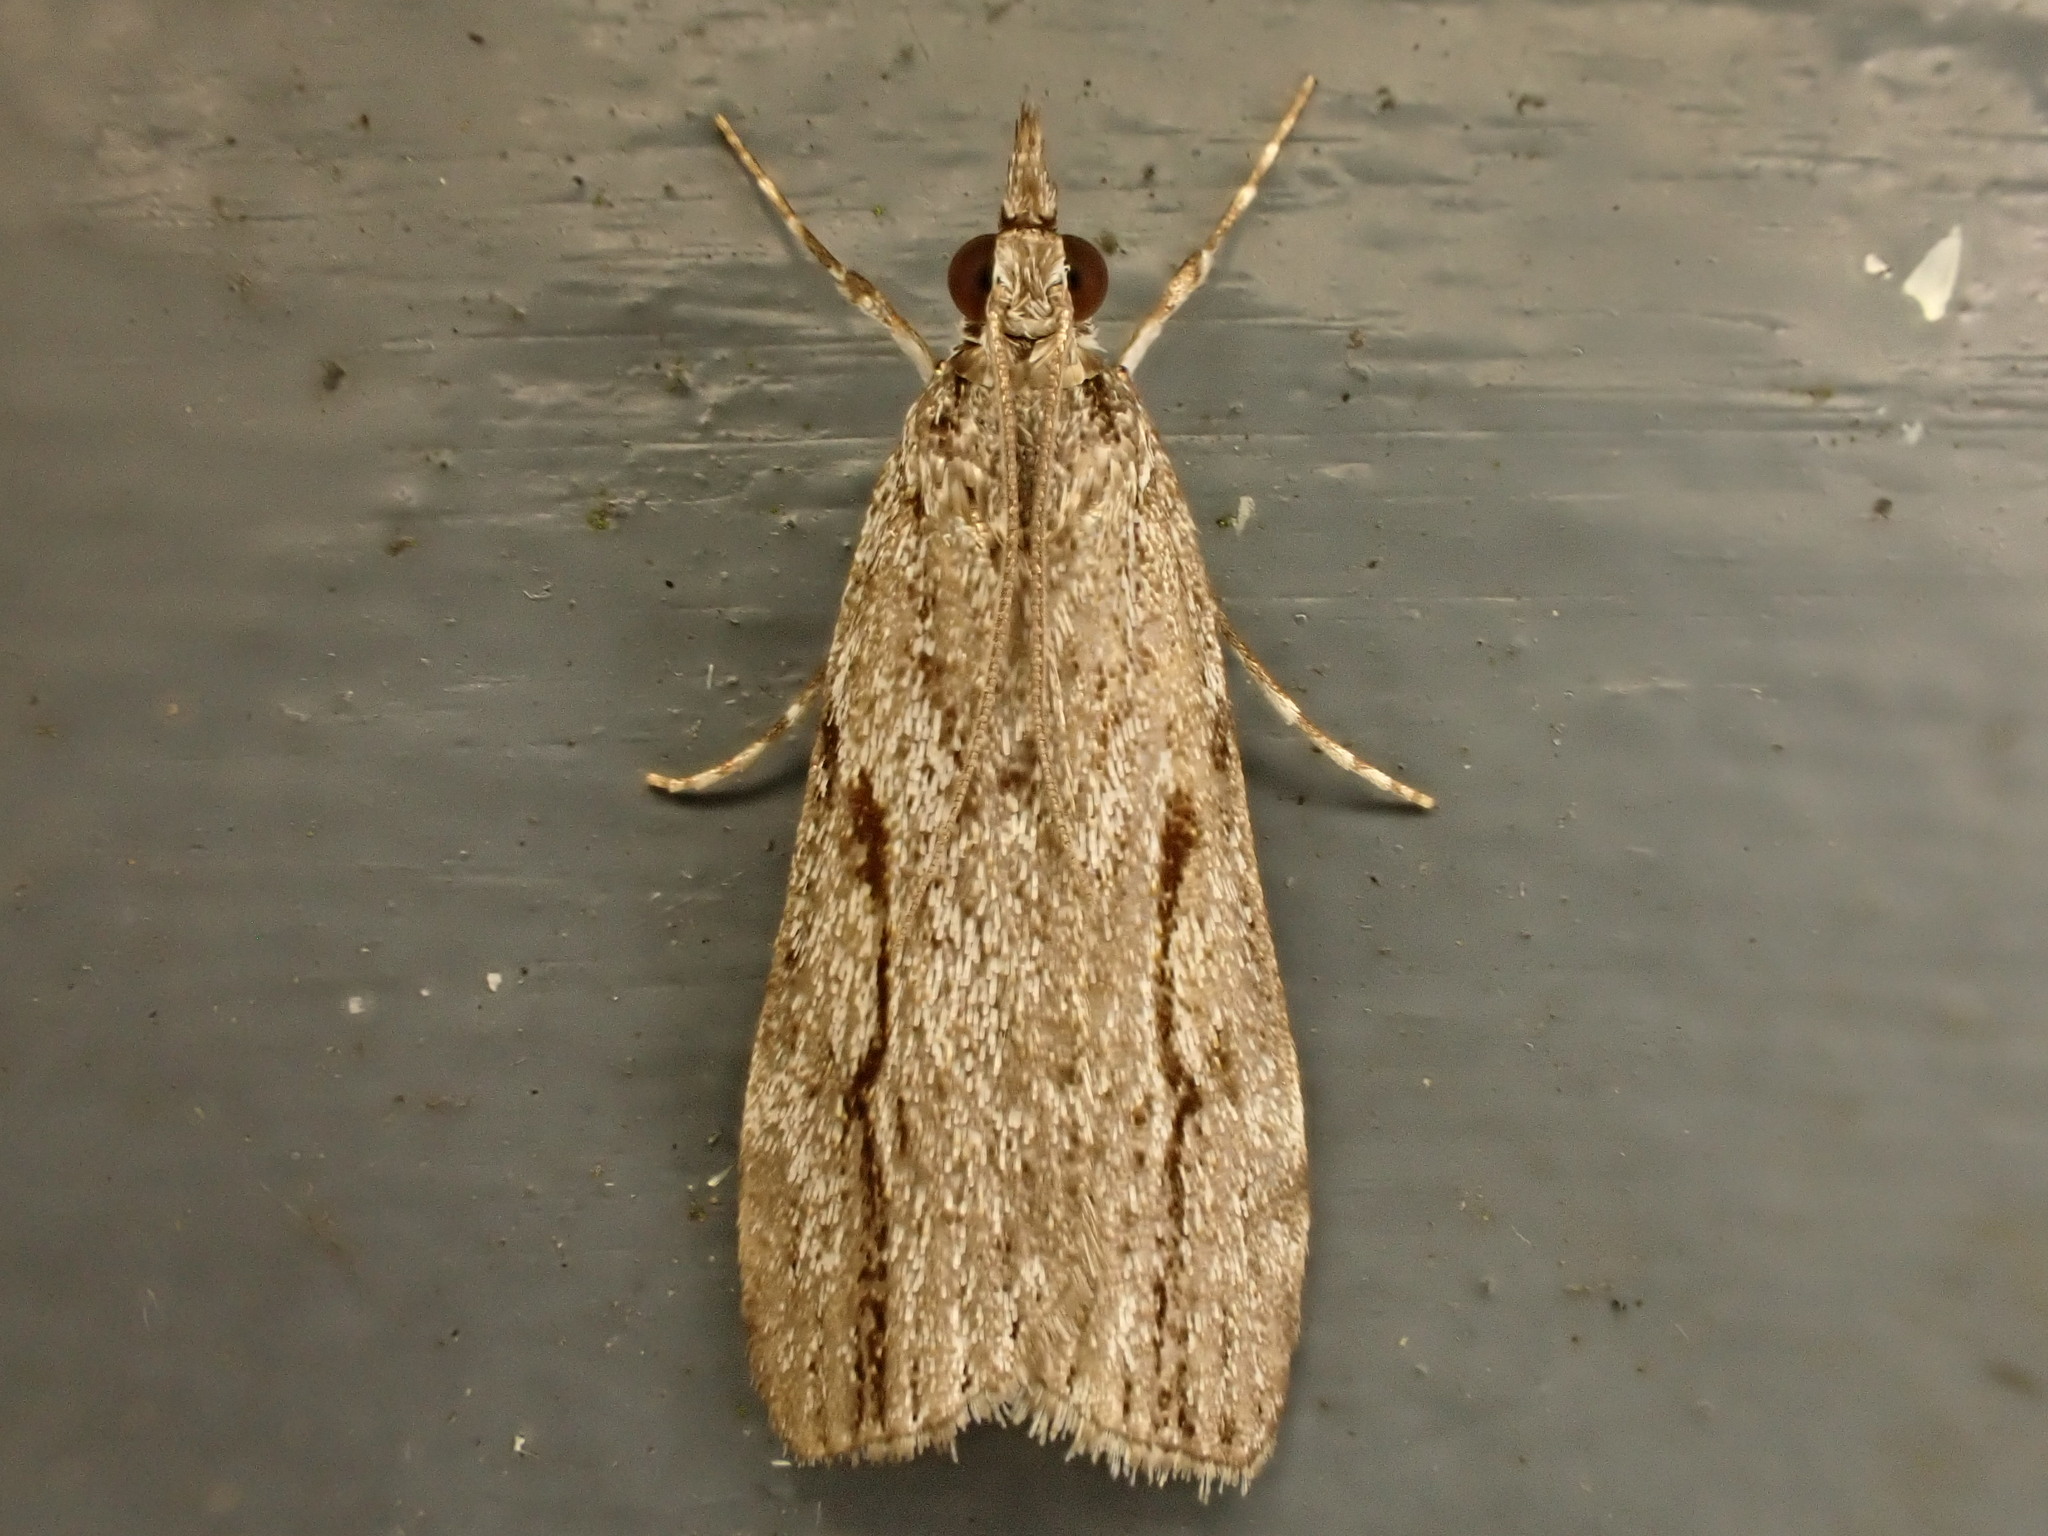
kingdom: Animalia
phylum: Arthropoda
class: Insecta
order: Lepidoptera
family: Crambidae
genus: Eudonia
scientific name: Eudonia bisinualis
